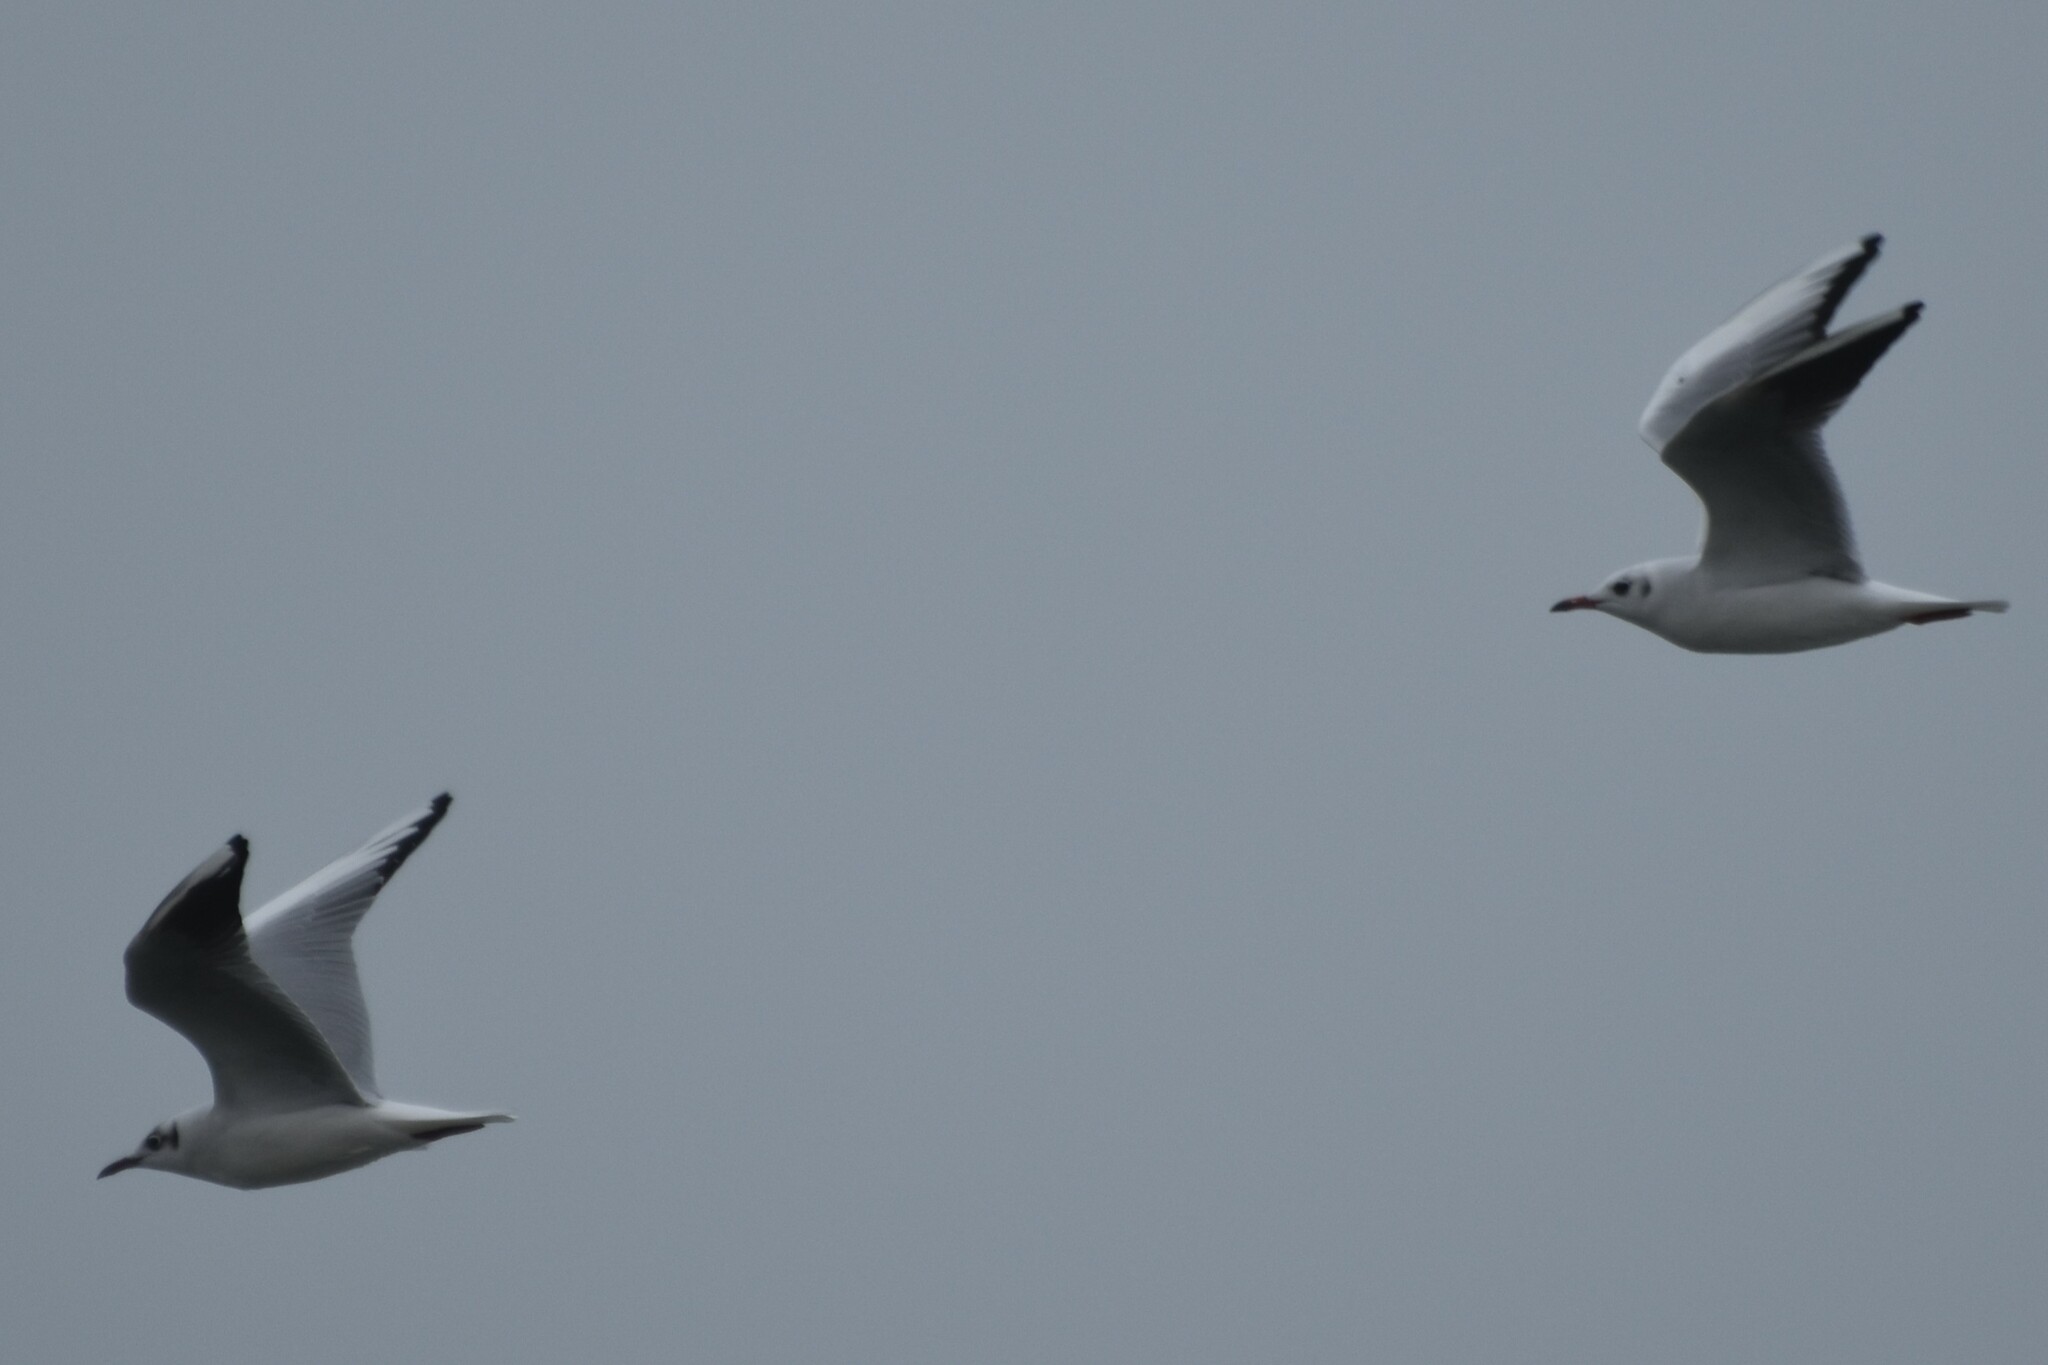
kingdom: Animalia
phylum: Chordata
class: Aves
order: Charadriiformes
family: Laridae
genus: Chroicocephalus
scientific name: Chroicocephalus ridibundus
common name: Black-headed gull
